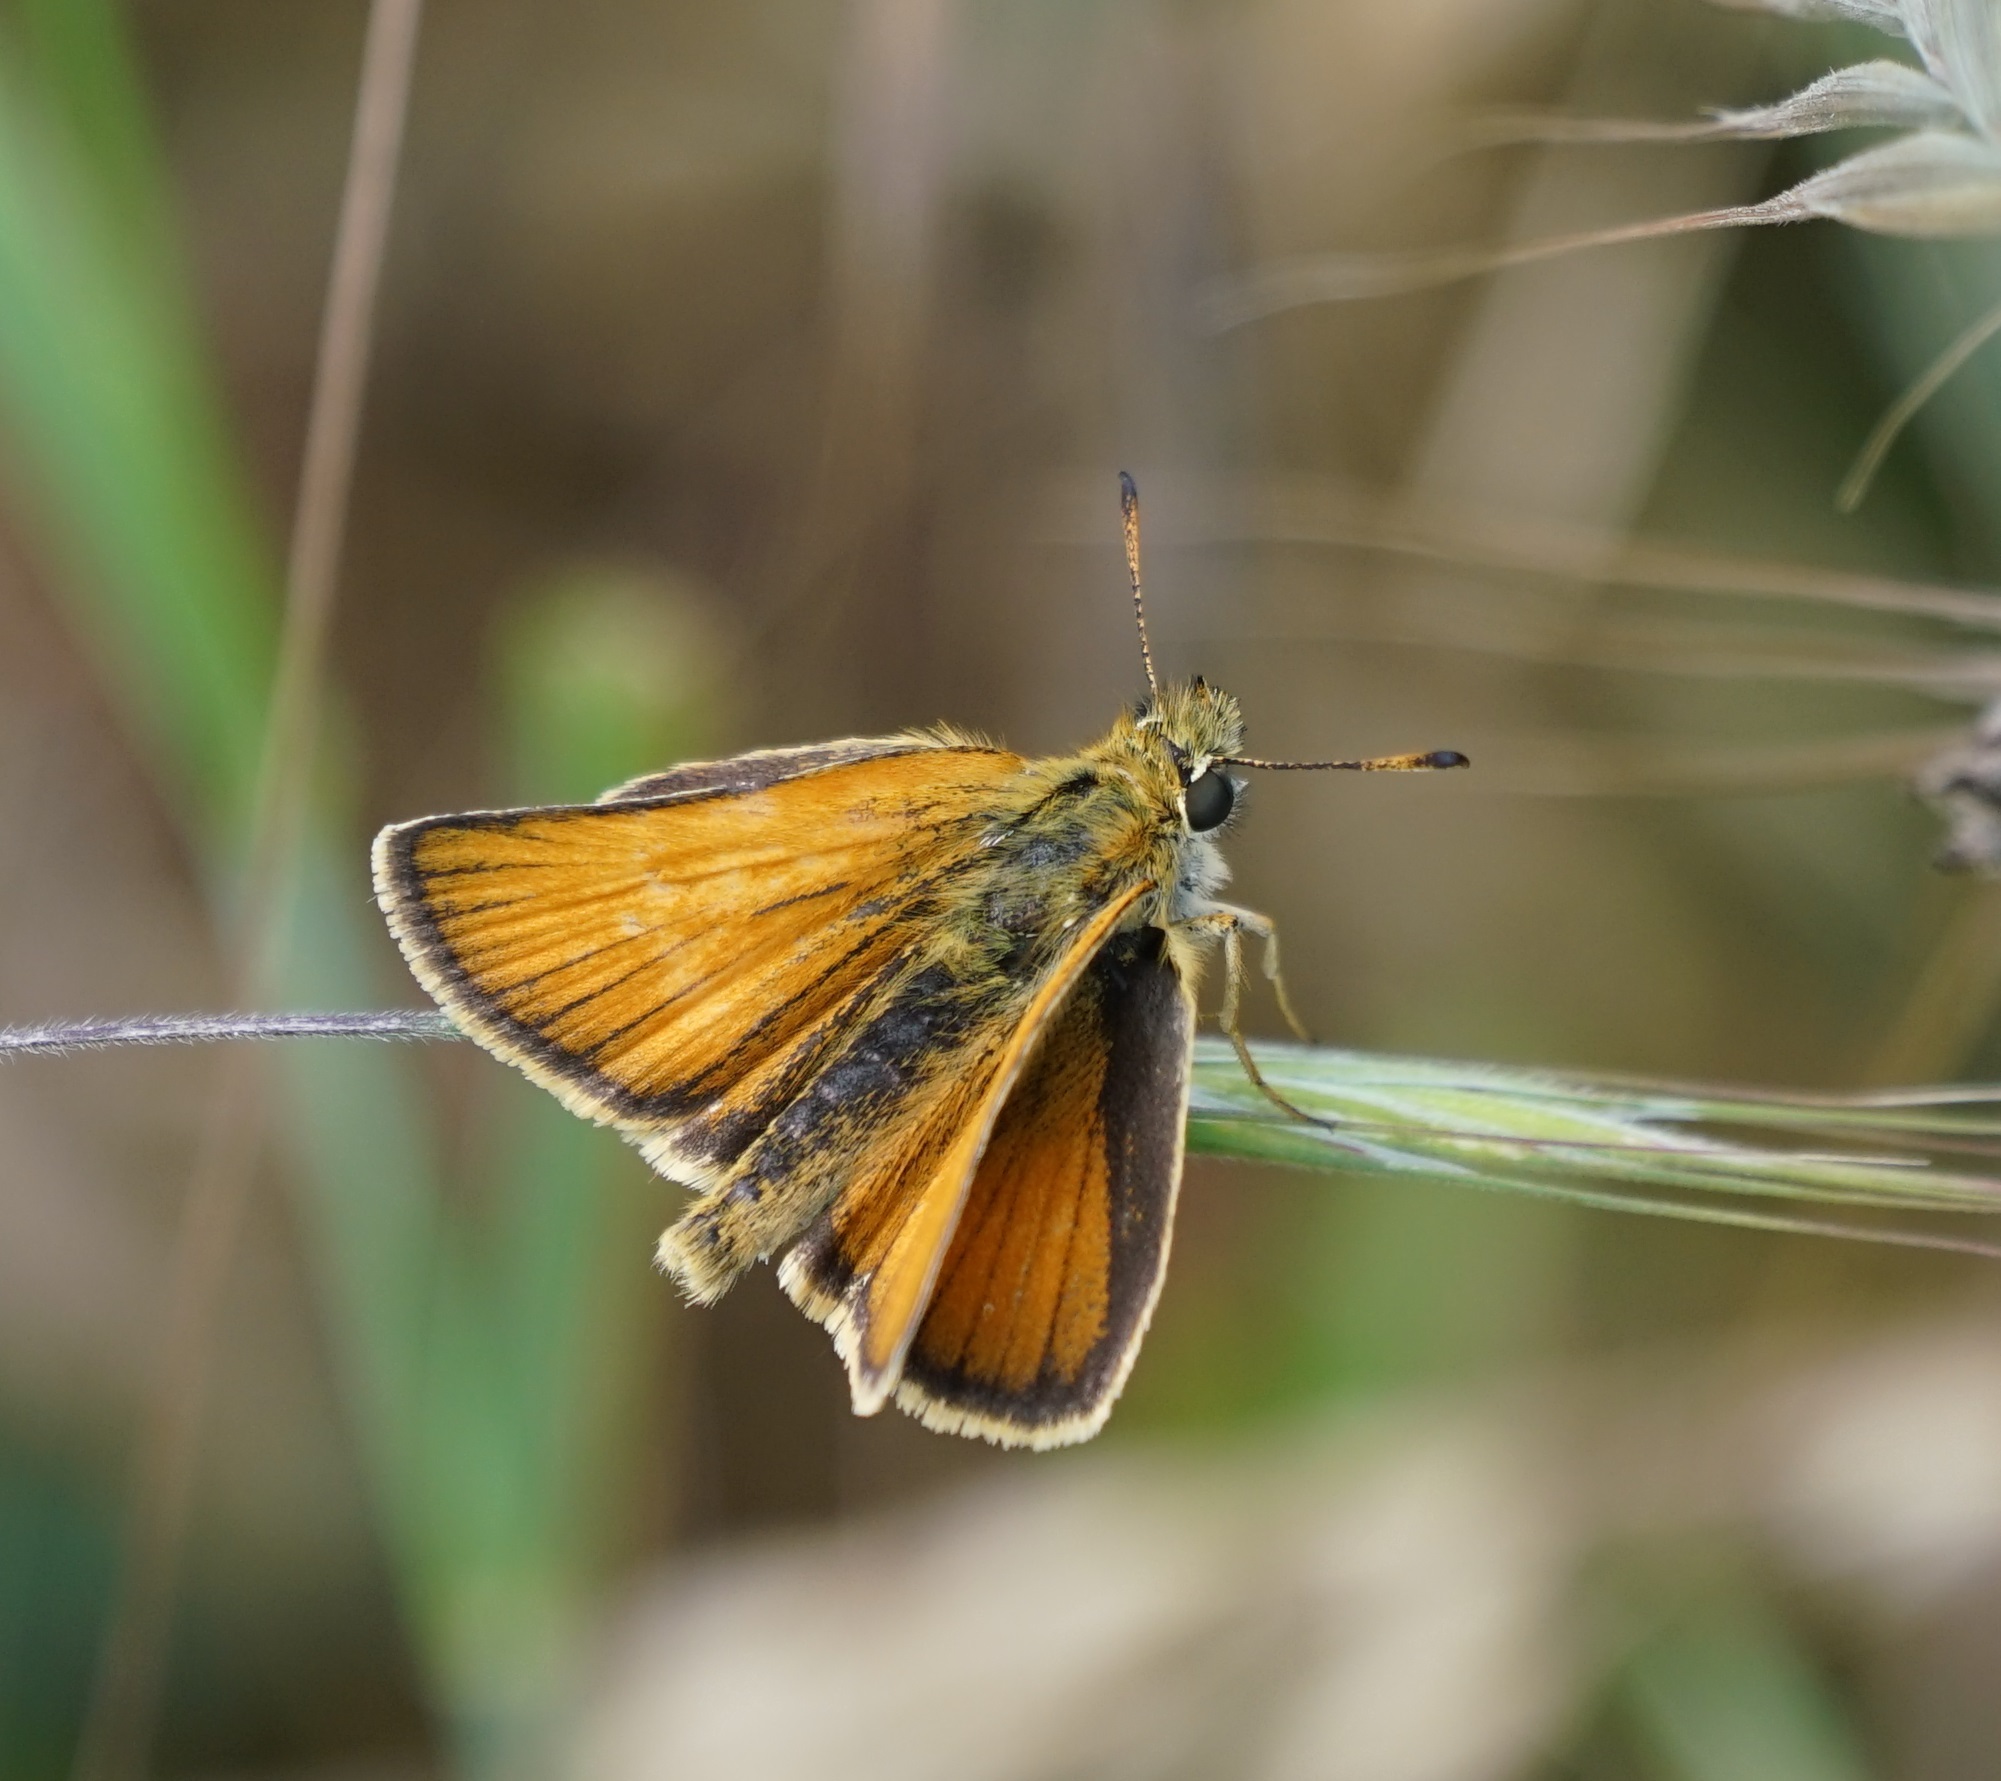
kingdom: Animalia
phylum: Arthropoda
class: Insecta
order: Lepidoptera
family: Hesperiidae
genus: Thymelicus
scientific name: Thymelicus lineola
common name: Essex skipper
